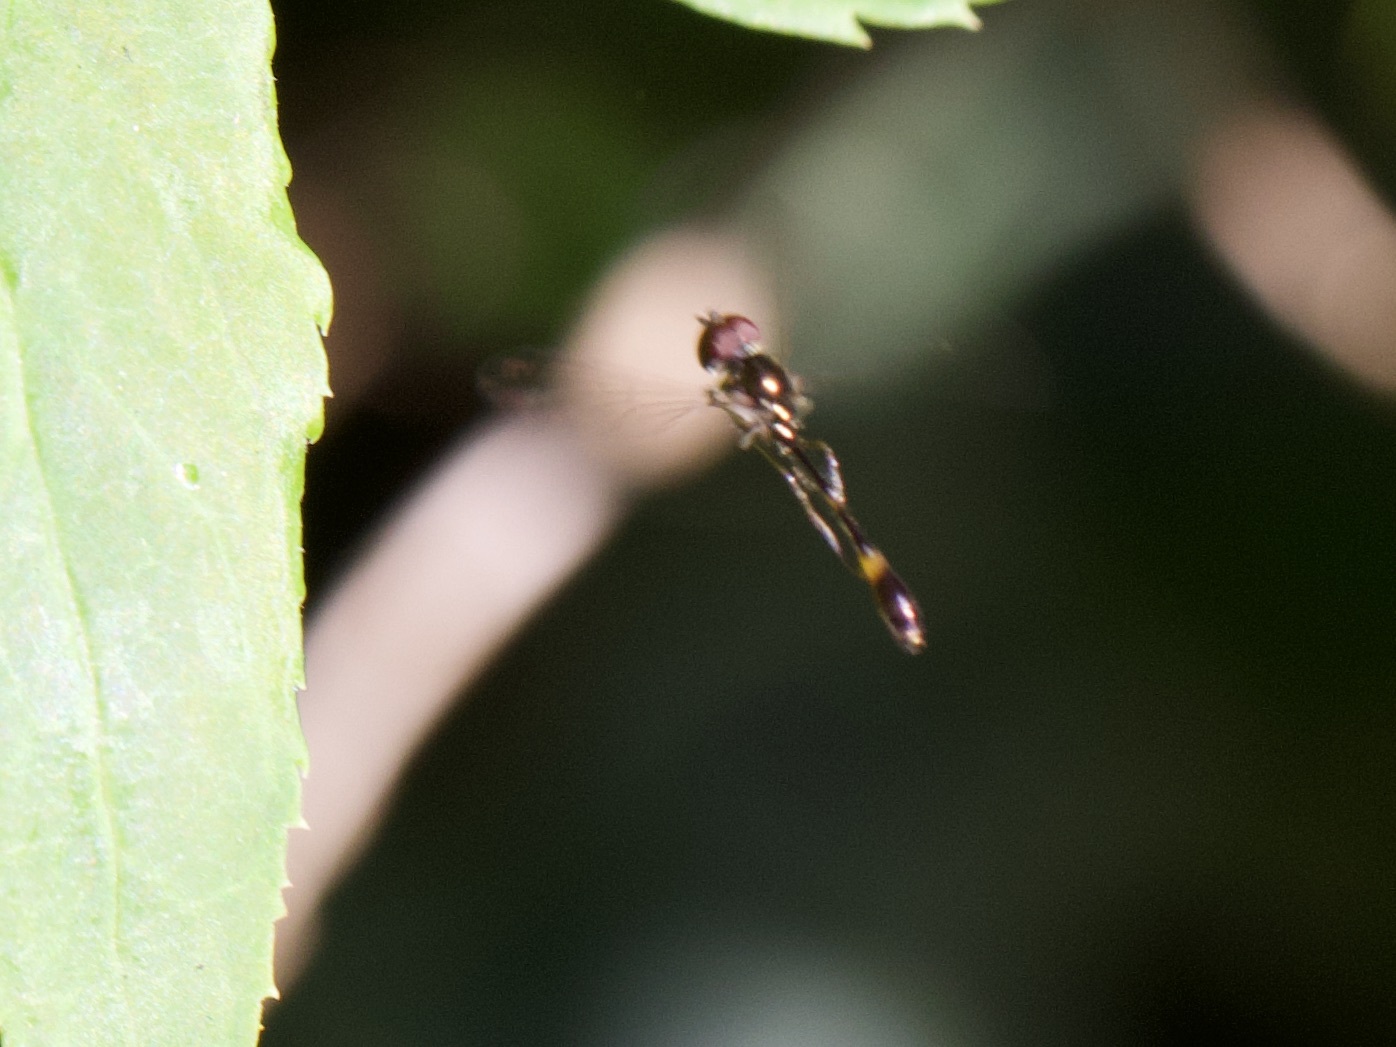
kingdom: Animalia
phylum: Arthropoda
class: Insecta
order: Diptera
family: Syrphidae
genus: Baccha
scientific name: Baccha elongata
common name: Common dainty
